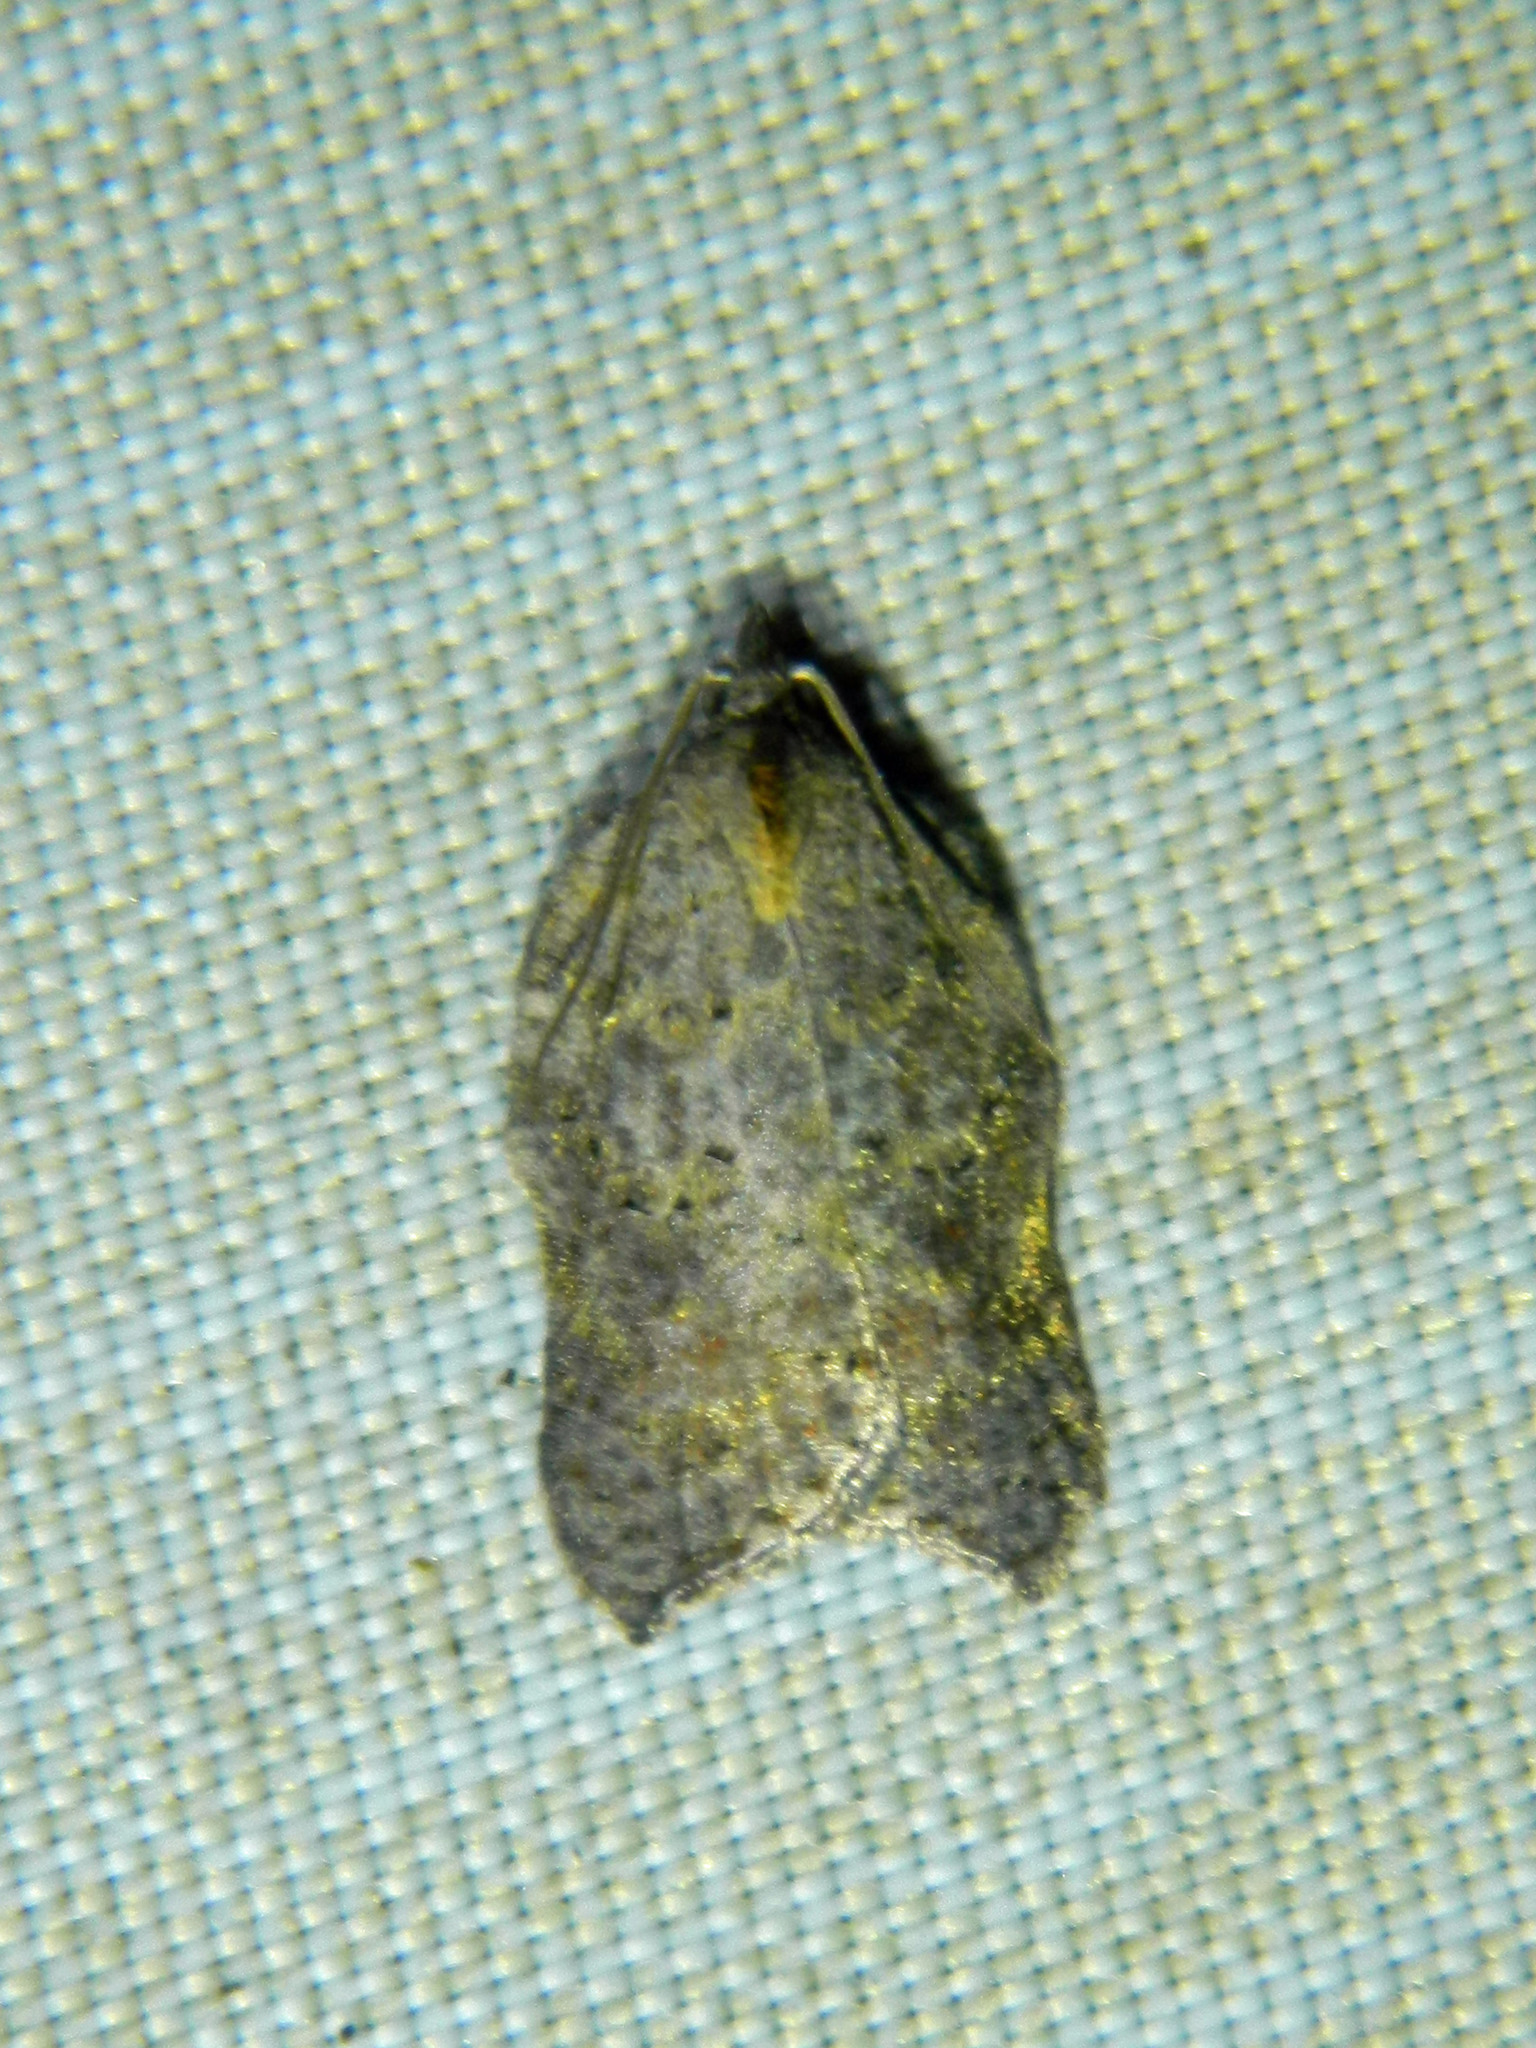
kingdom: Animalia
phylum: Arthropoda
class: Insecta
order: Lepidoptera
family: Tortricidae
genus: Acleris
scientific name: Acleris effractana
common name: Hook-winged tortrix moth
